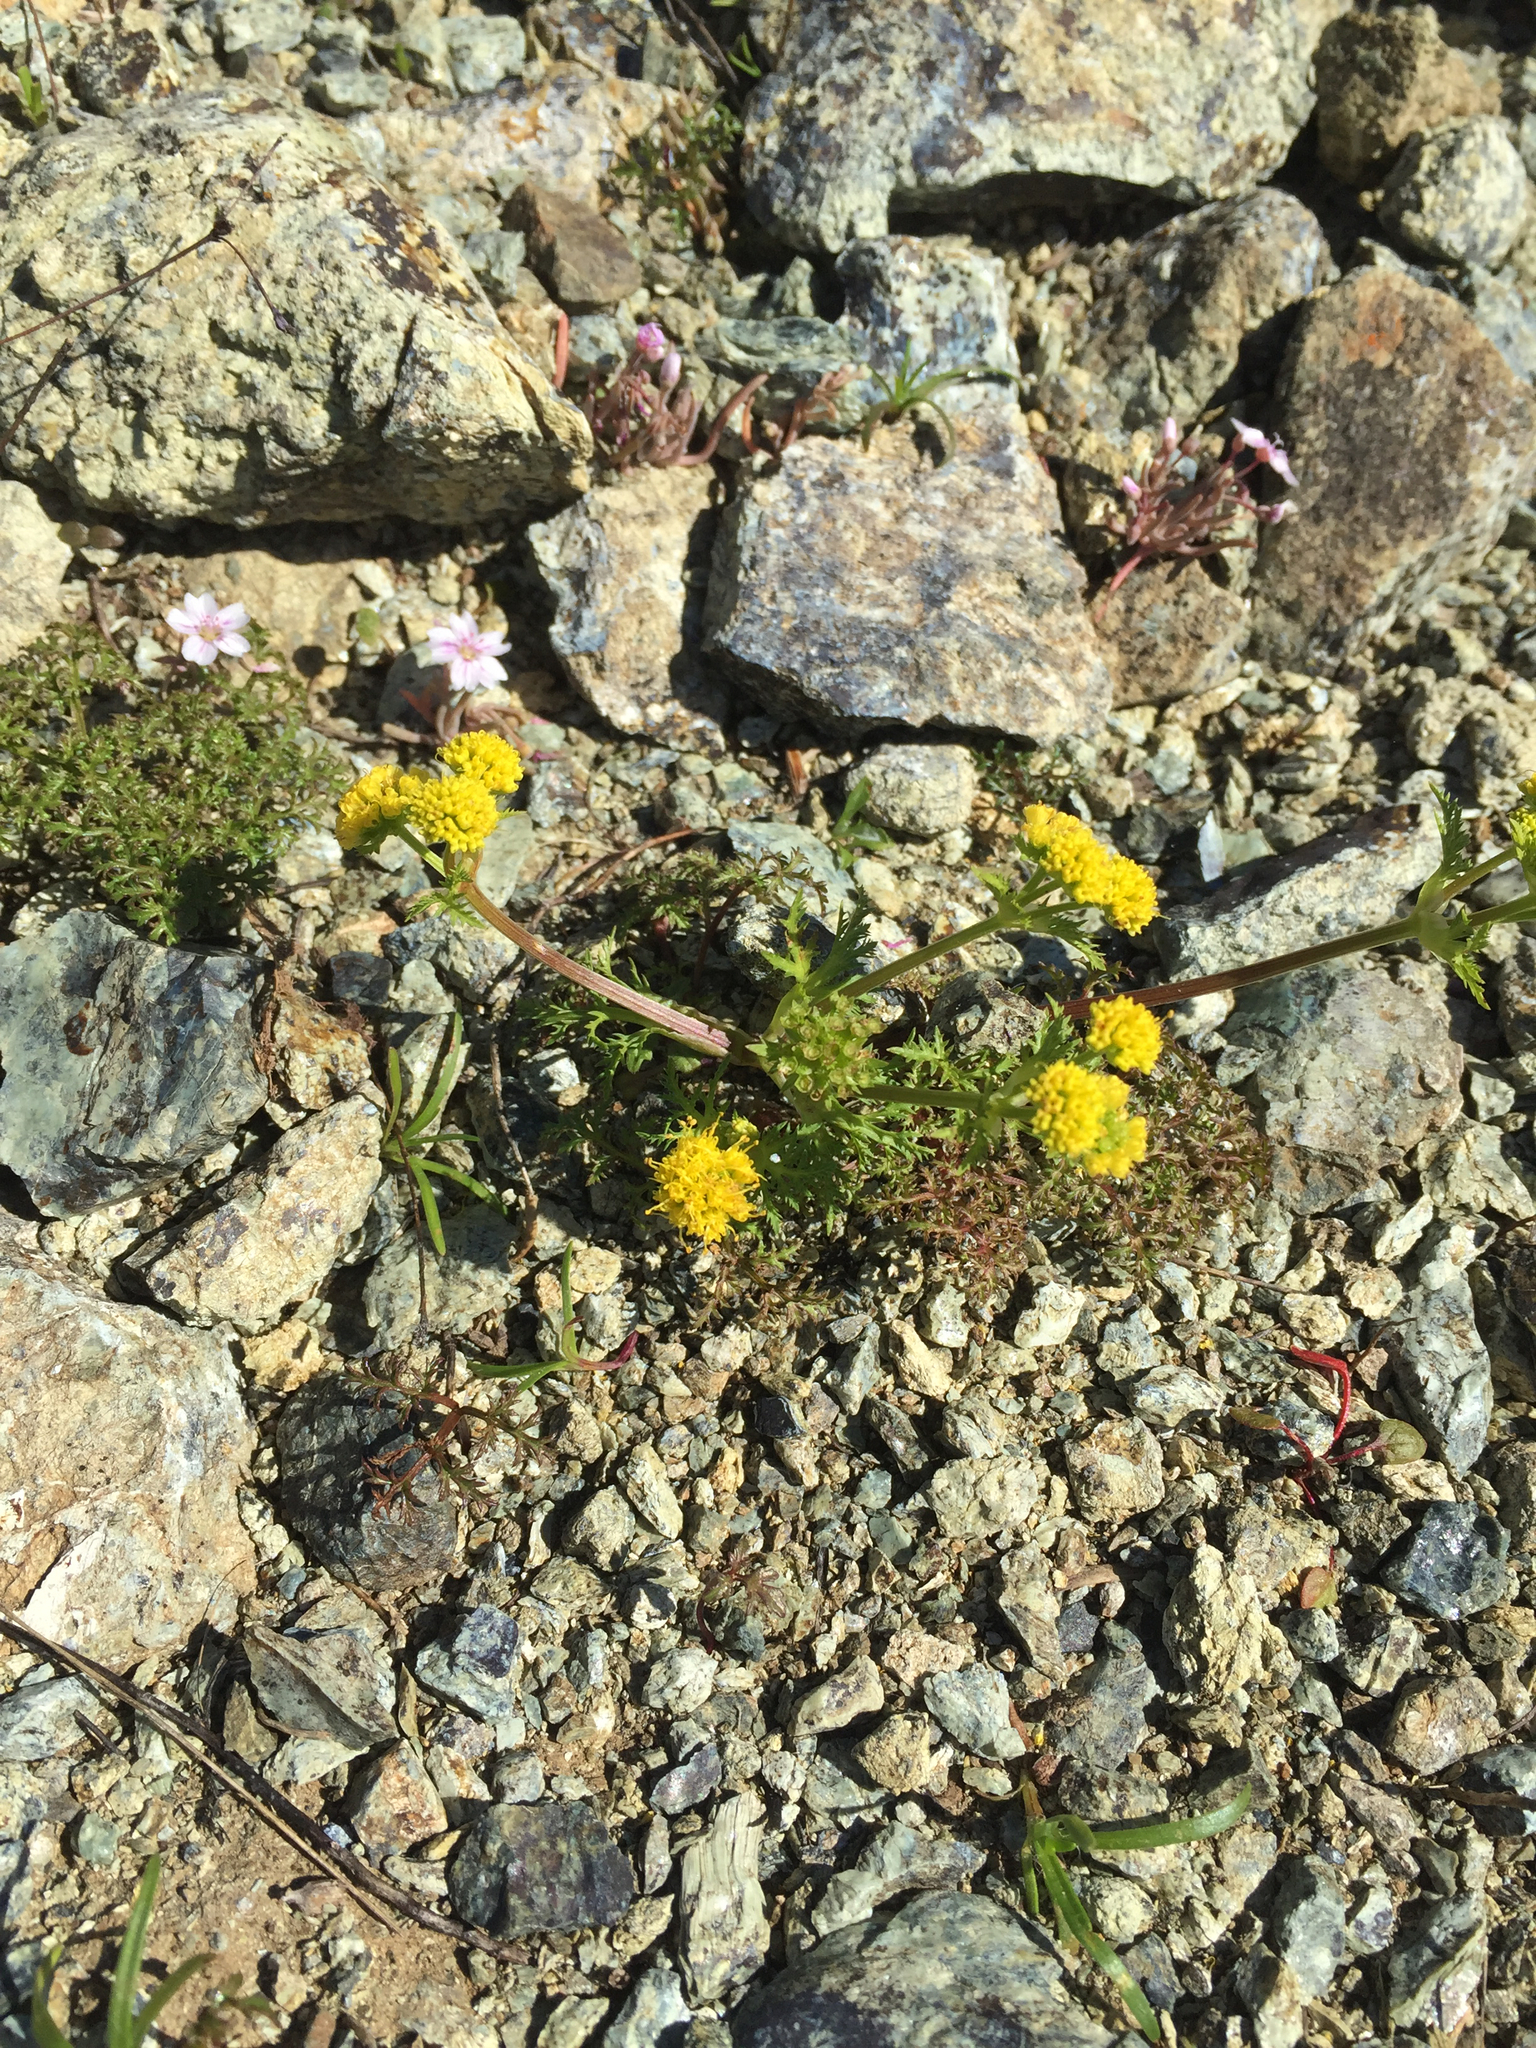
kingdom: Plantae
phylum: Tracheophyta
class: Magnoliopsida
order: Apiales
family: Apiaceae
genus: Sanicula
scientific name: Sanicula tuberosa
